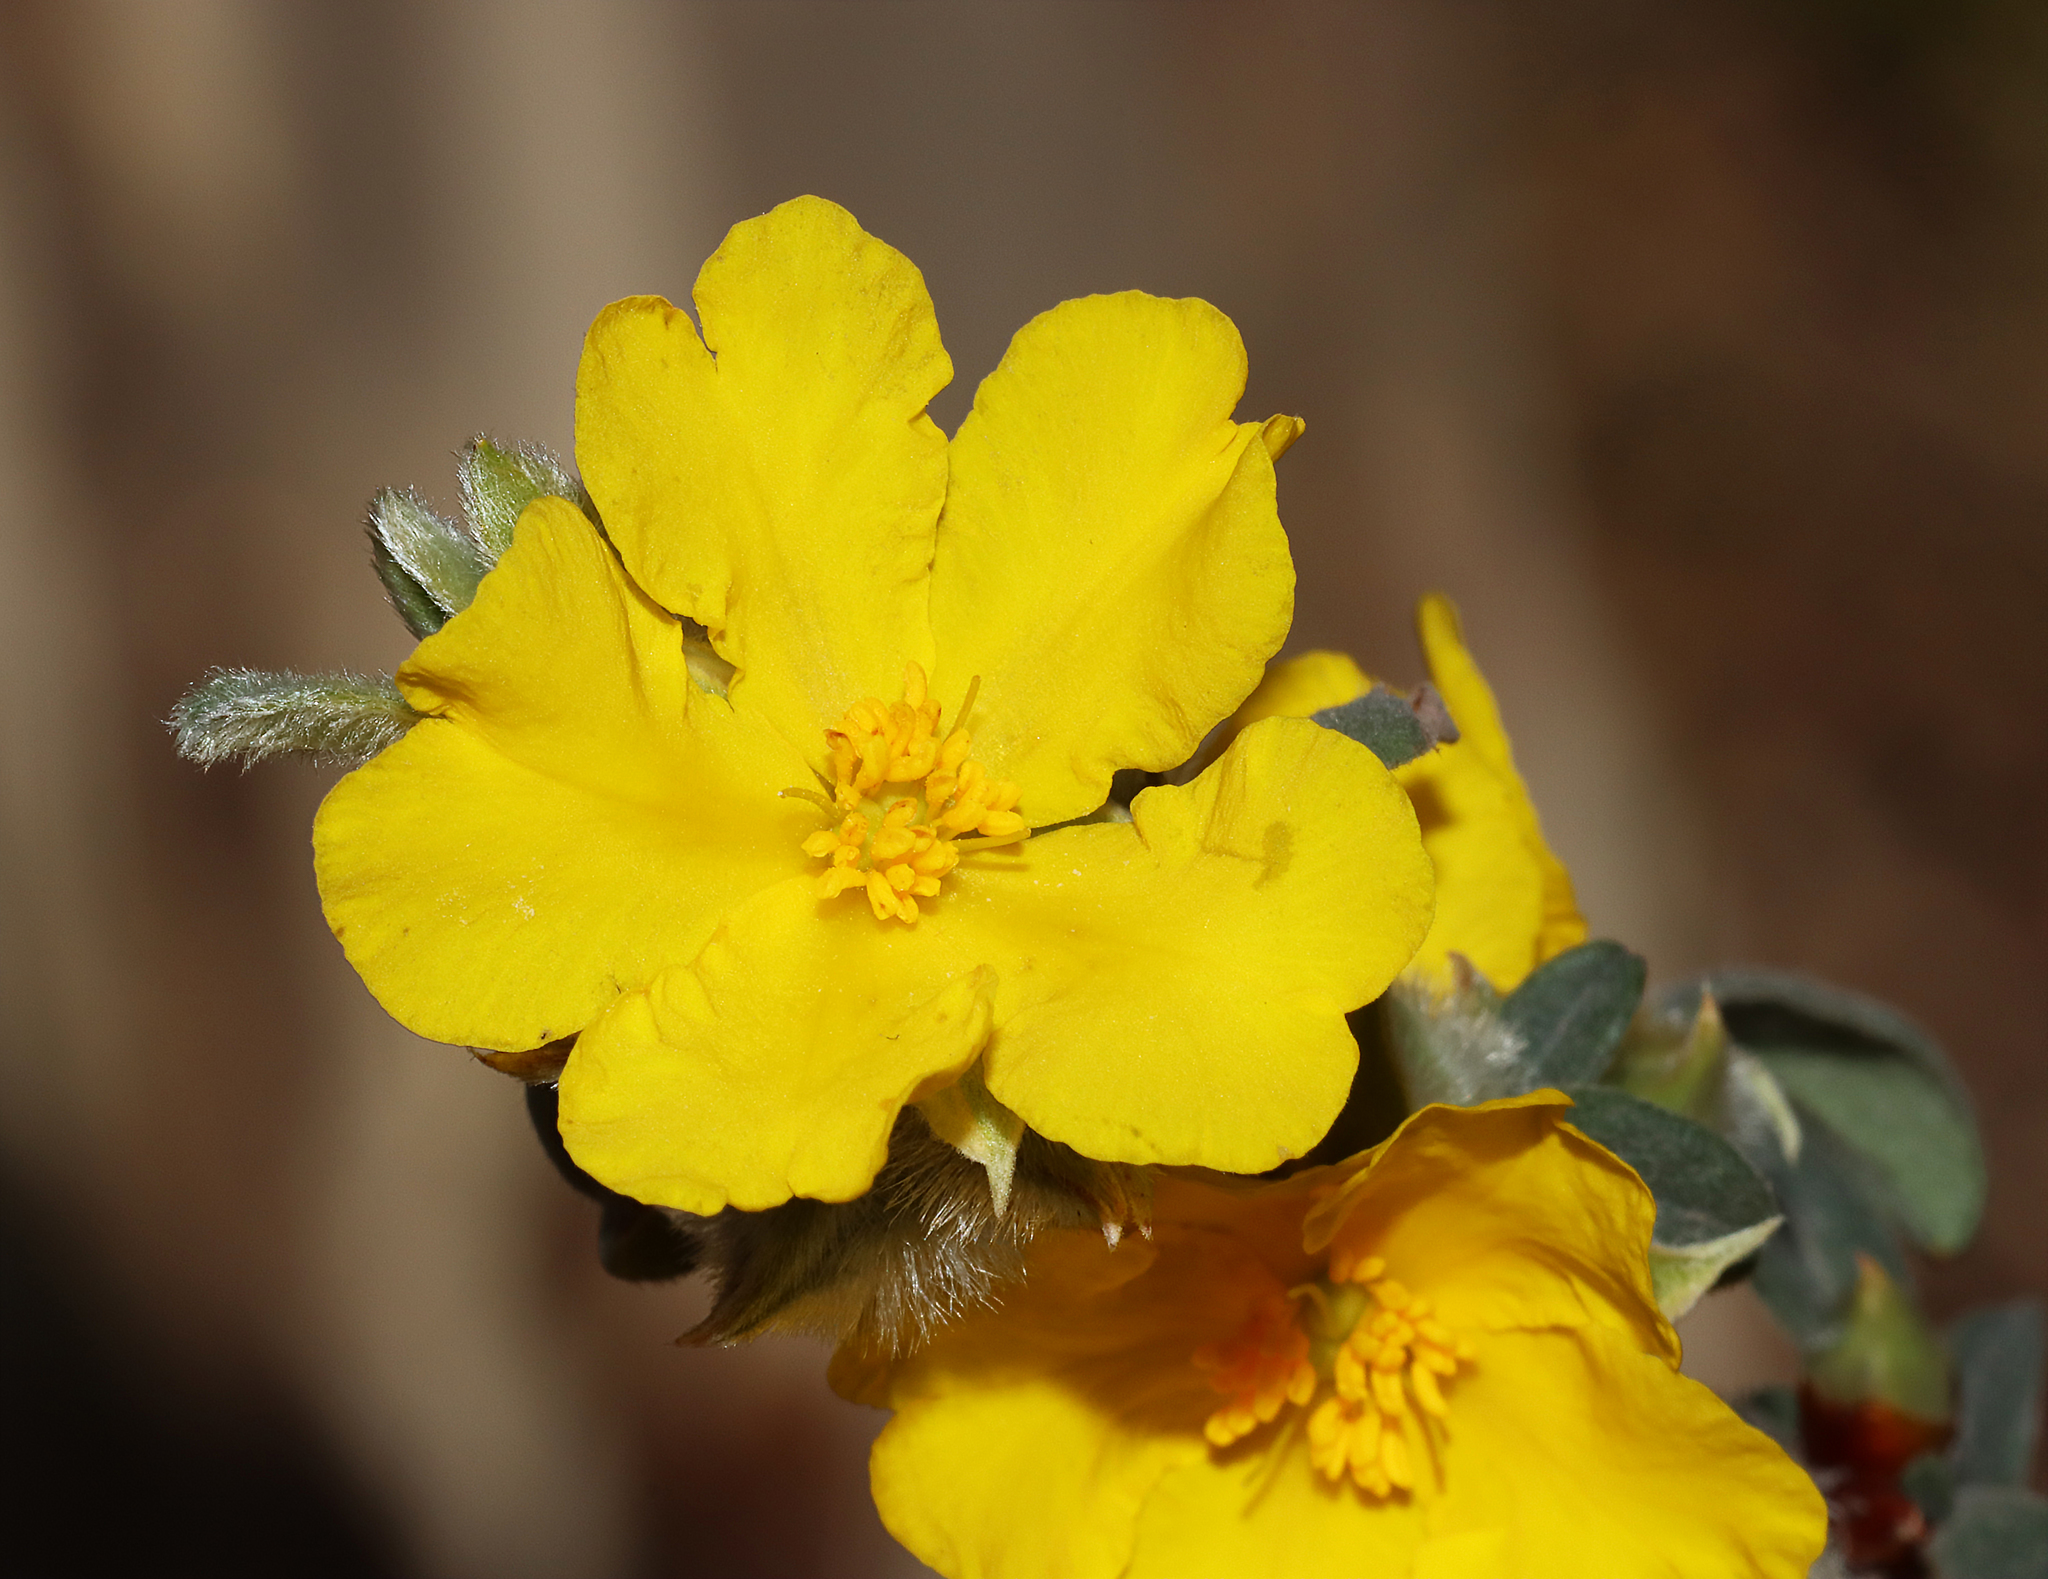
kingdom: Plantae
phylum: Tracheophyta
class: Magnoliopsida
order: Dilleniales
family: Dilleniaceae
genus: Hibbertia
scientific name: Hibbertia commutata
